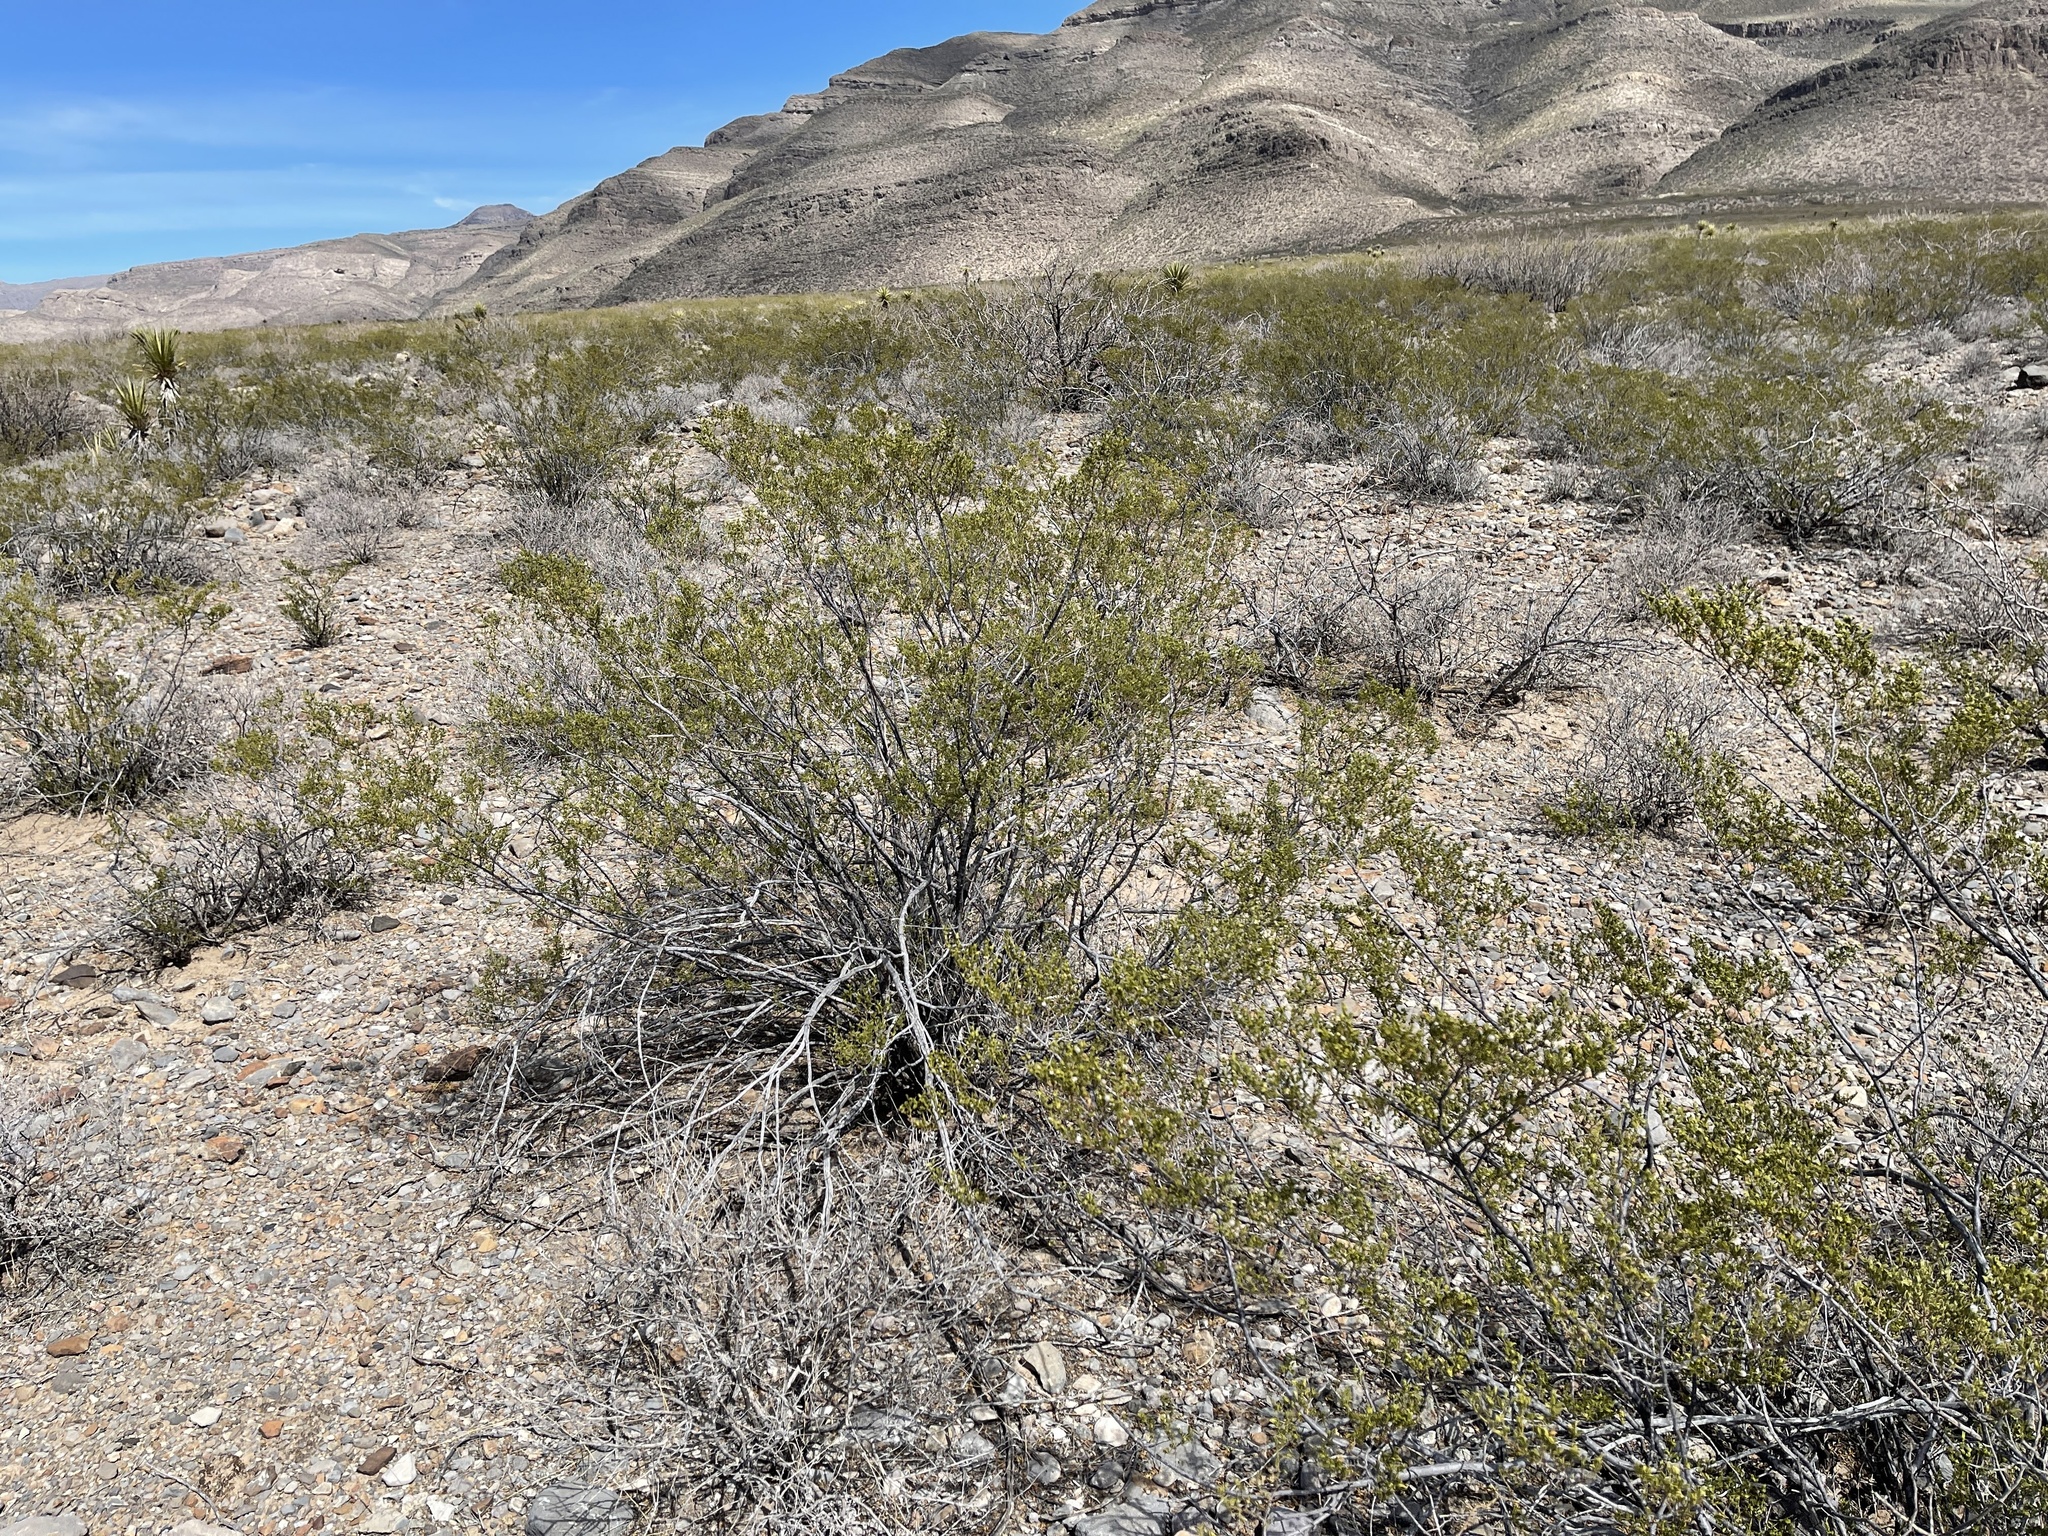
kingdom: Plantae
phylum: Tracheophyta
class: Magnoliopsida
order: Zygophyllales
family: Zygophyllaceae
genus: Larrea
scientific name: Larrea tridentata
